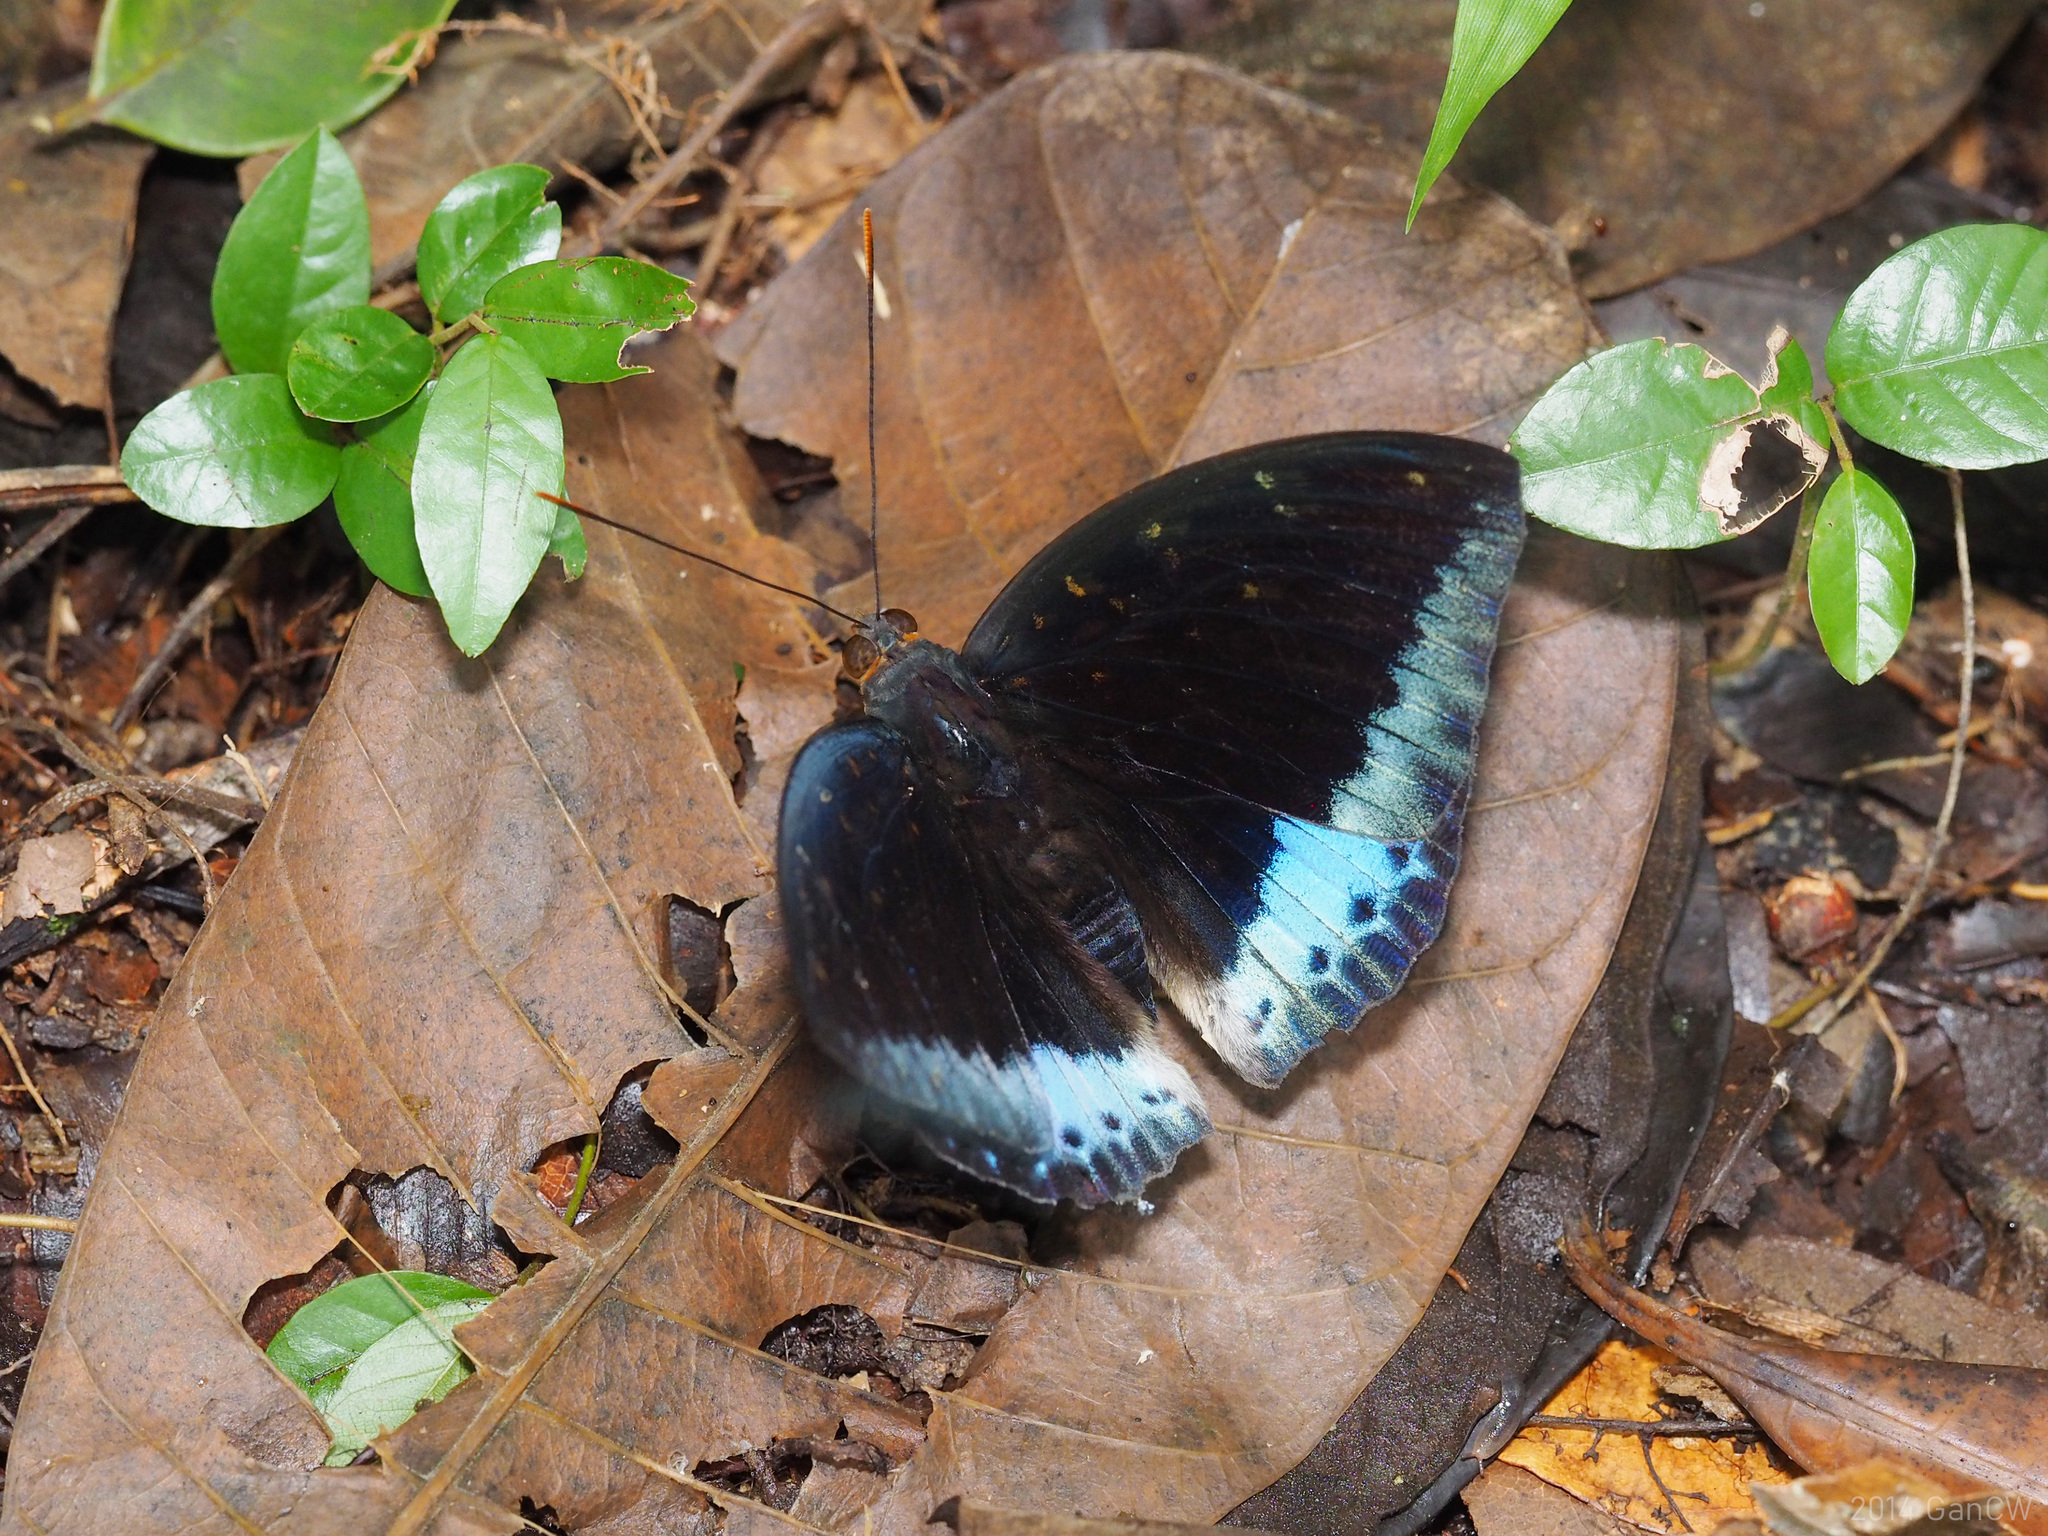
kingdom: Animalia
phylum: Arthropoda
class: Insecta
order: Lepidoptera
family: Nymphalidae
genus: Lexias
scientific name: Lexias pardalis
